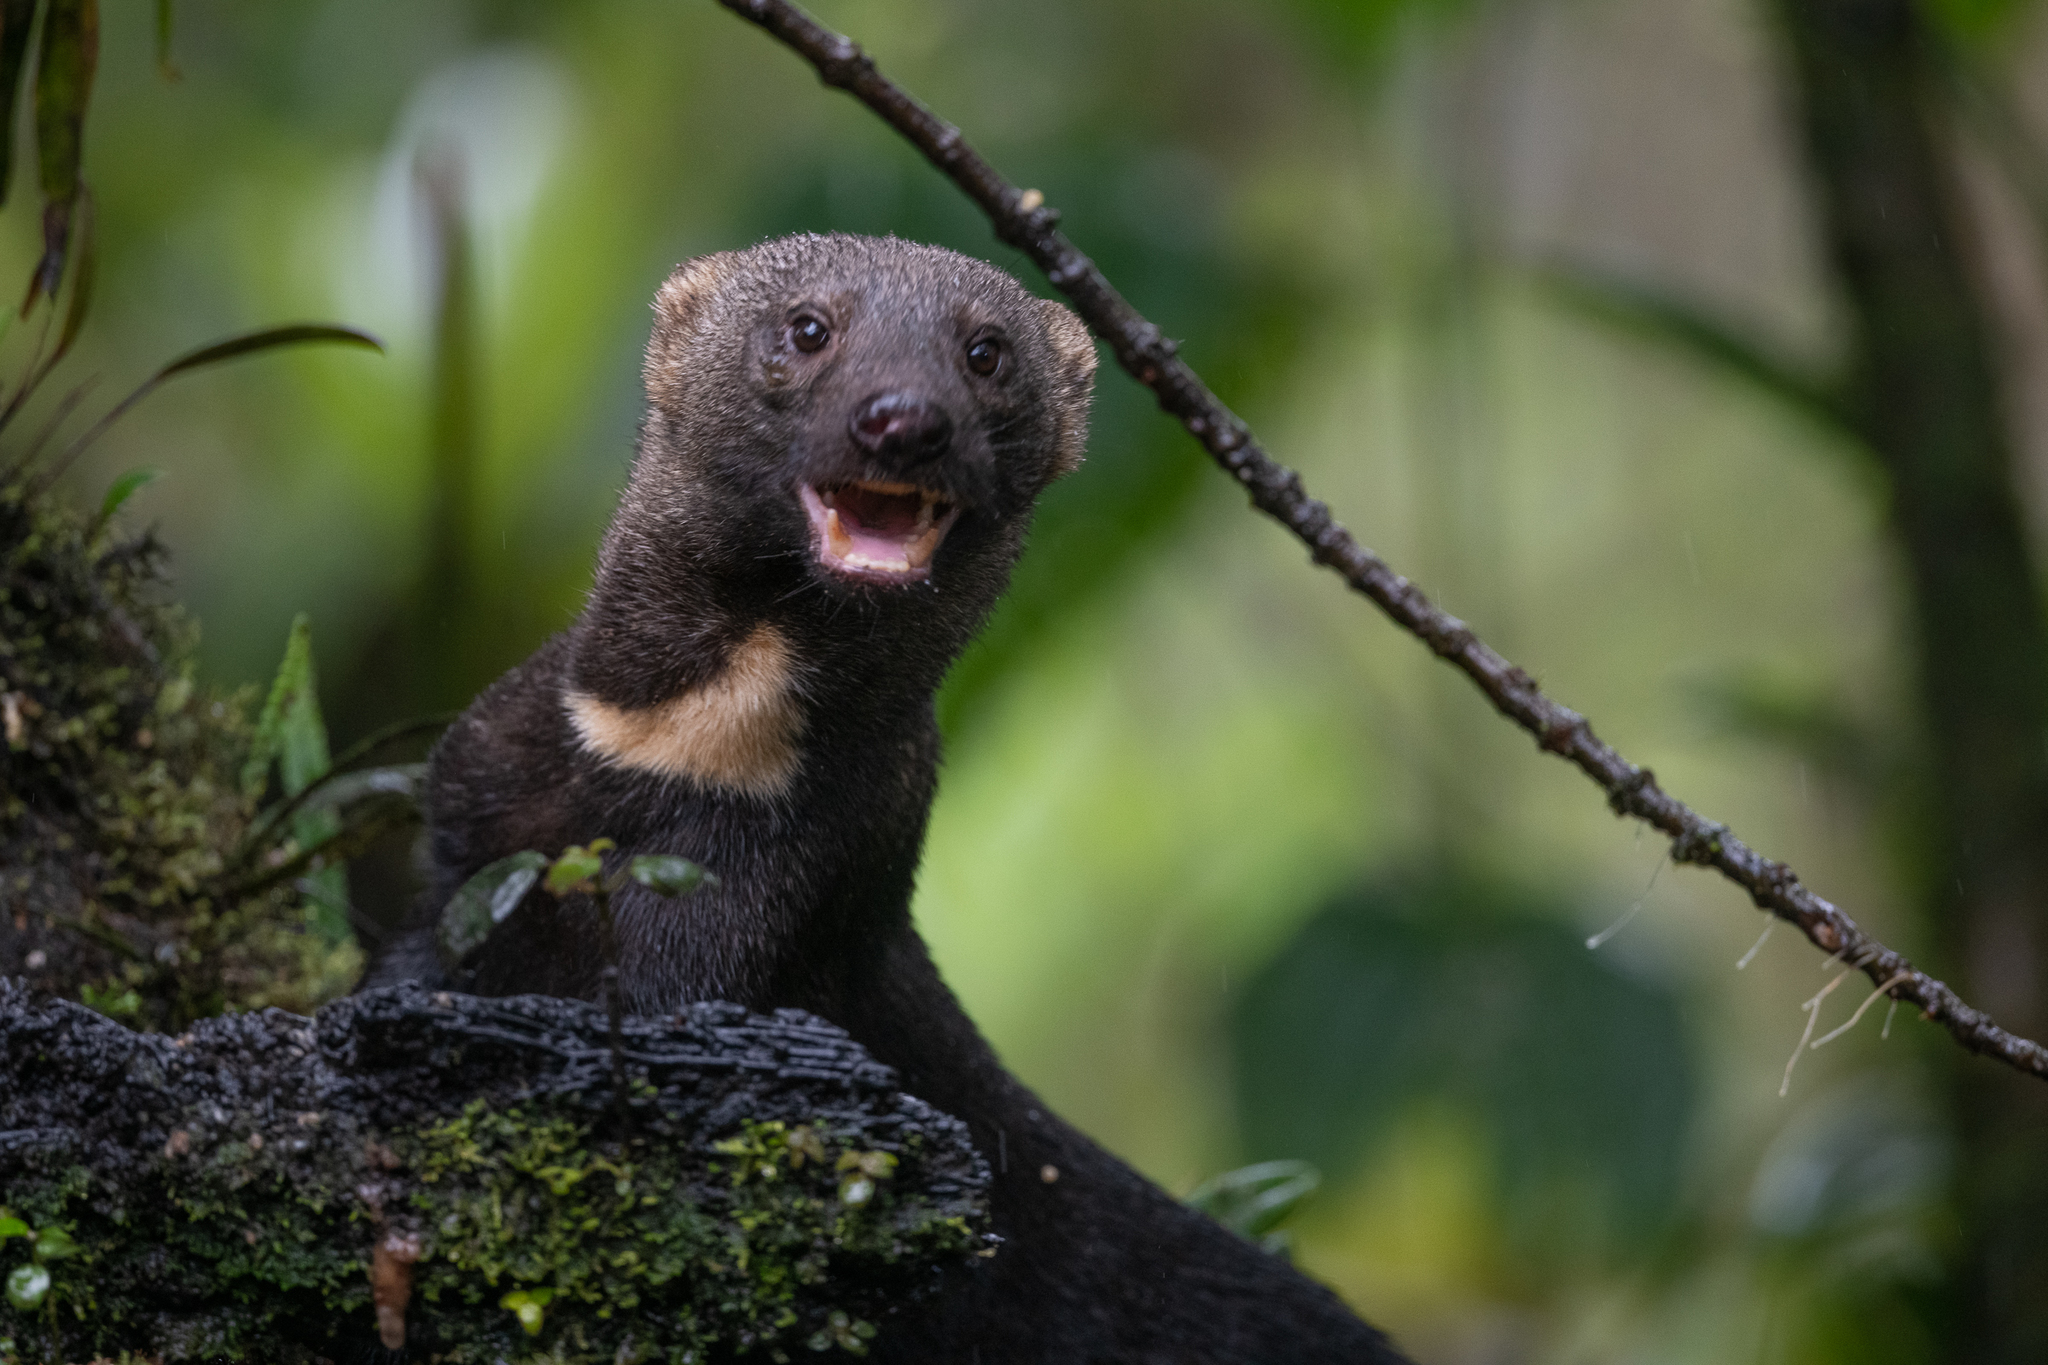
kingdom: Animalia
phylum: Chordata
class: Mammalia
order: Carnivora
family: Mustelidae
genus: Eira
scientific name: Eira barbara
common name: Tayra
